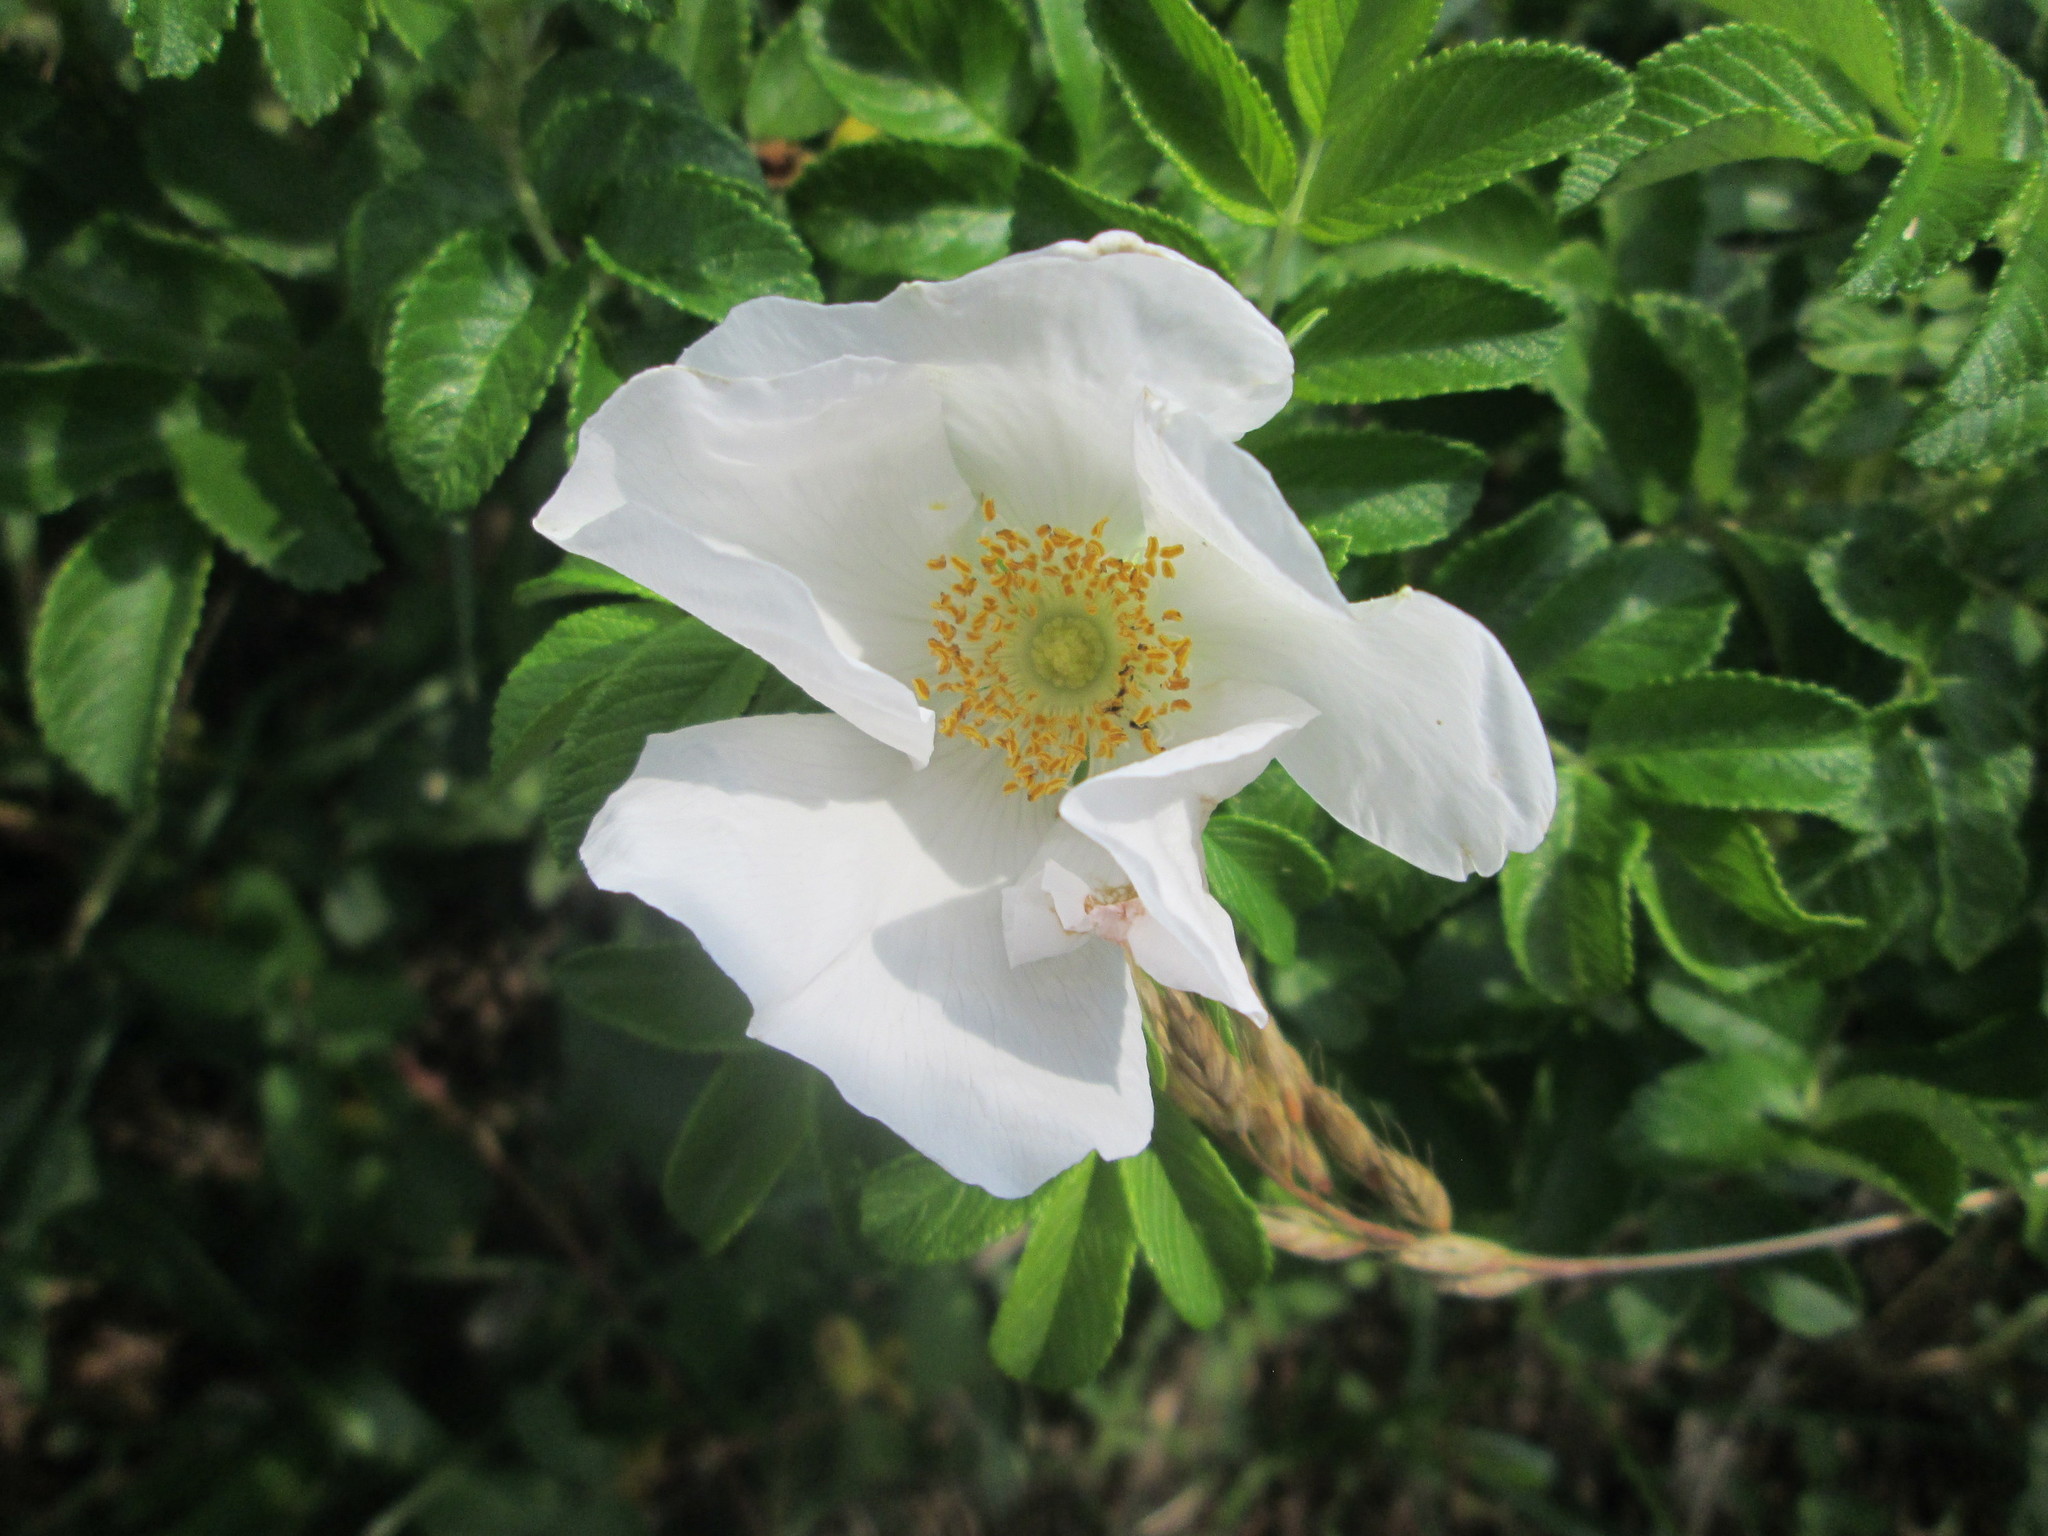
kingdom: Plantae
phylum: Tracheophyta
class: Magnoliopsida
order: Rosales
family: Rosaceae
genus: Rosa
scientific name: Rosa rugosa
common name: Japanese rose
